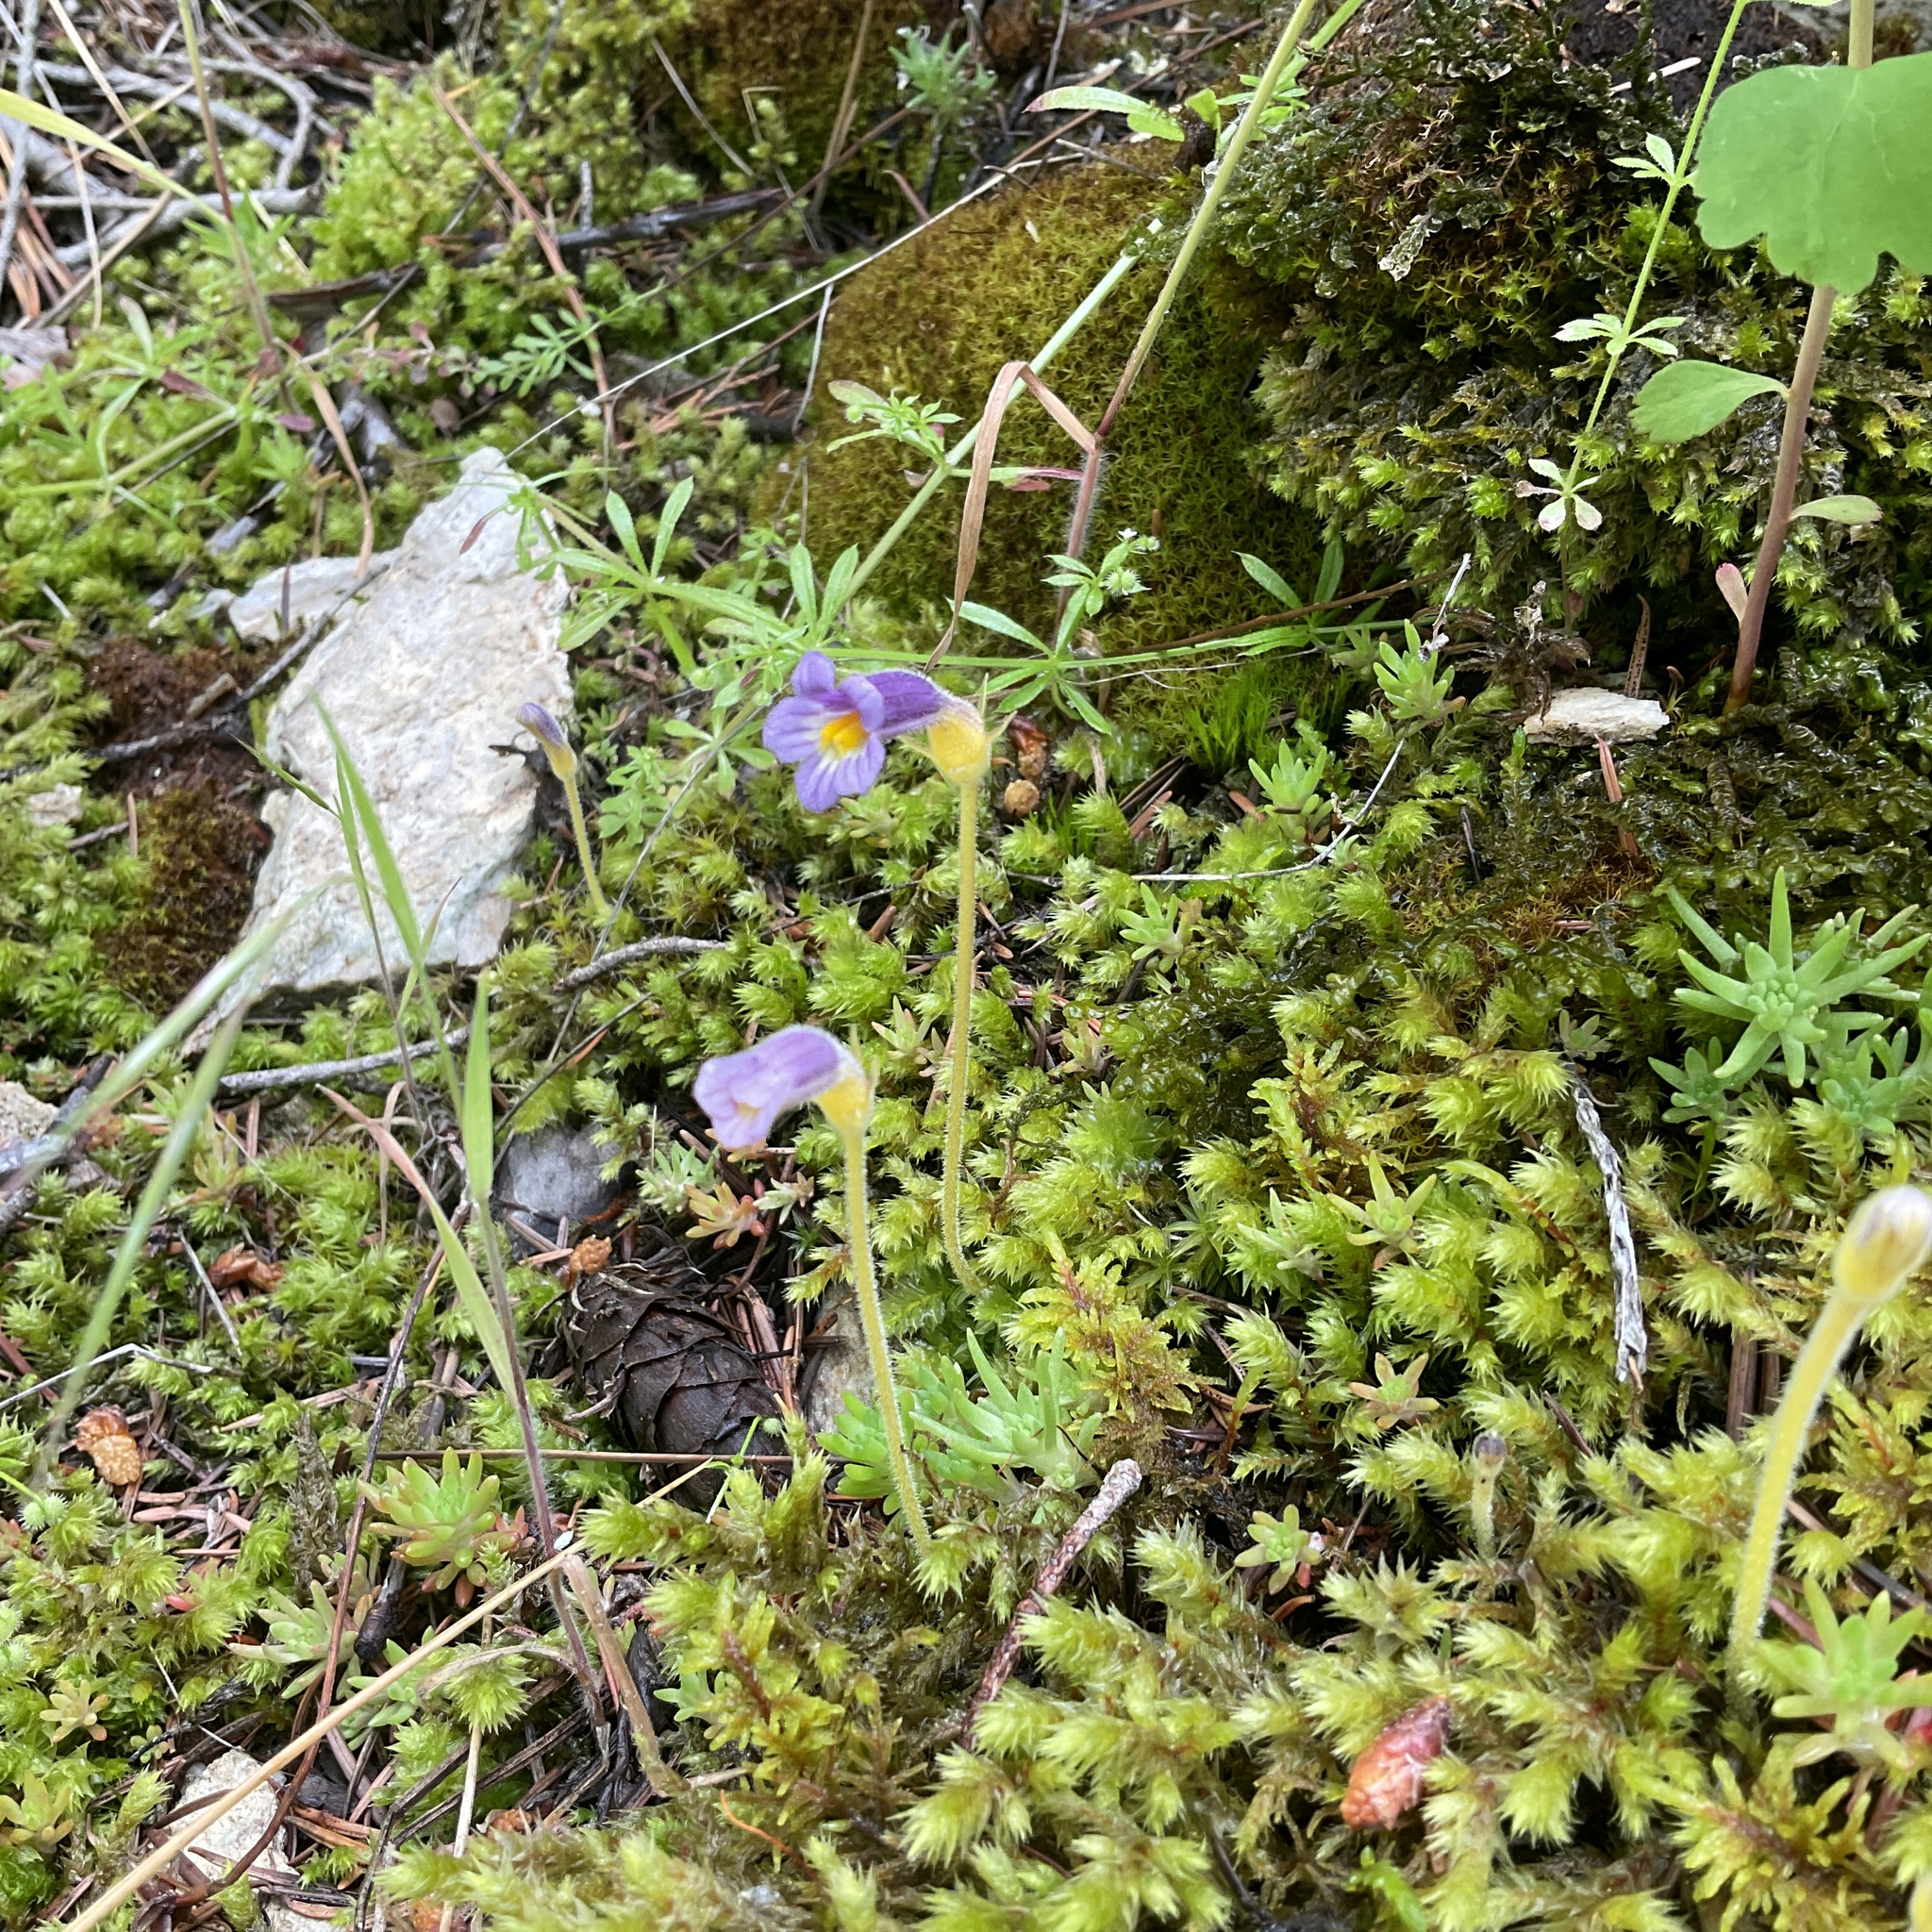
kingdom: Plantae
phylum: Tracheophyta
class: Magnoliopsida
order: Lamiales
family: Orobanchaceae
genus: Aphyllon
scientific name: Aphyllon uniflorum
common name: One-flowered broomrape
